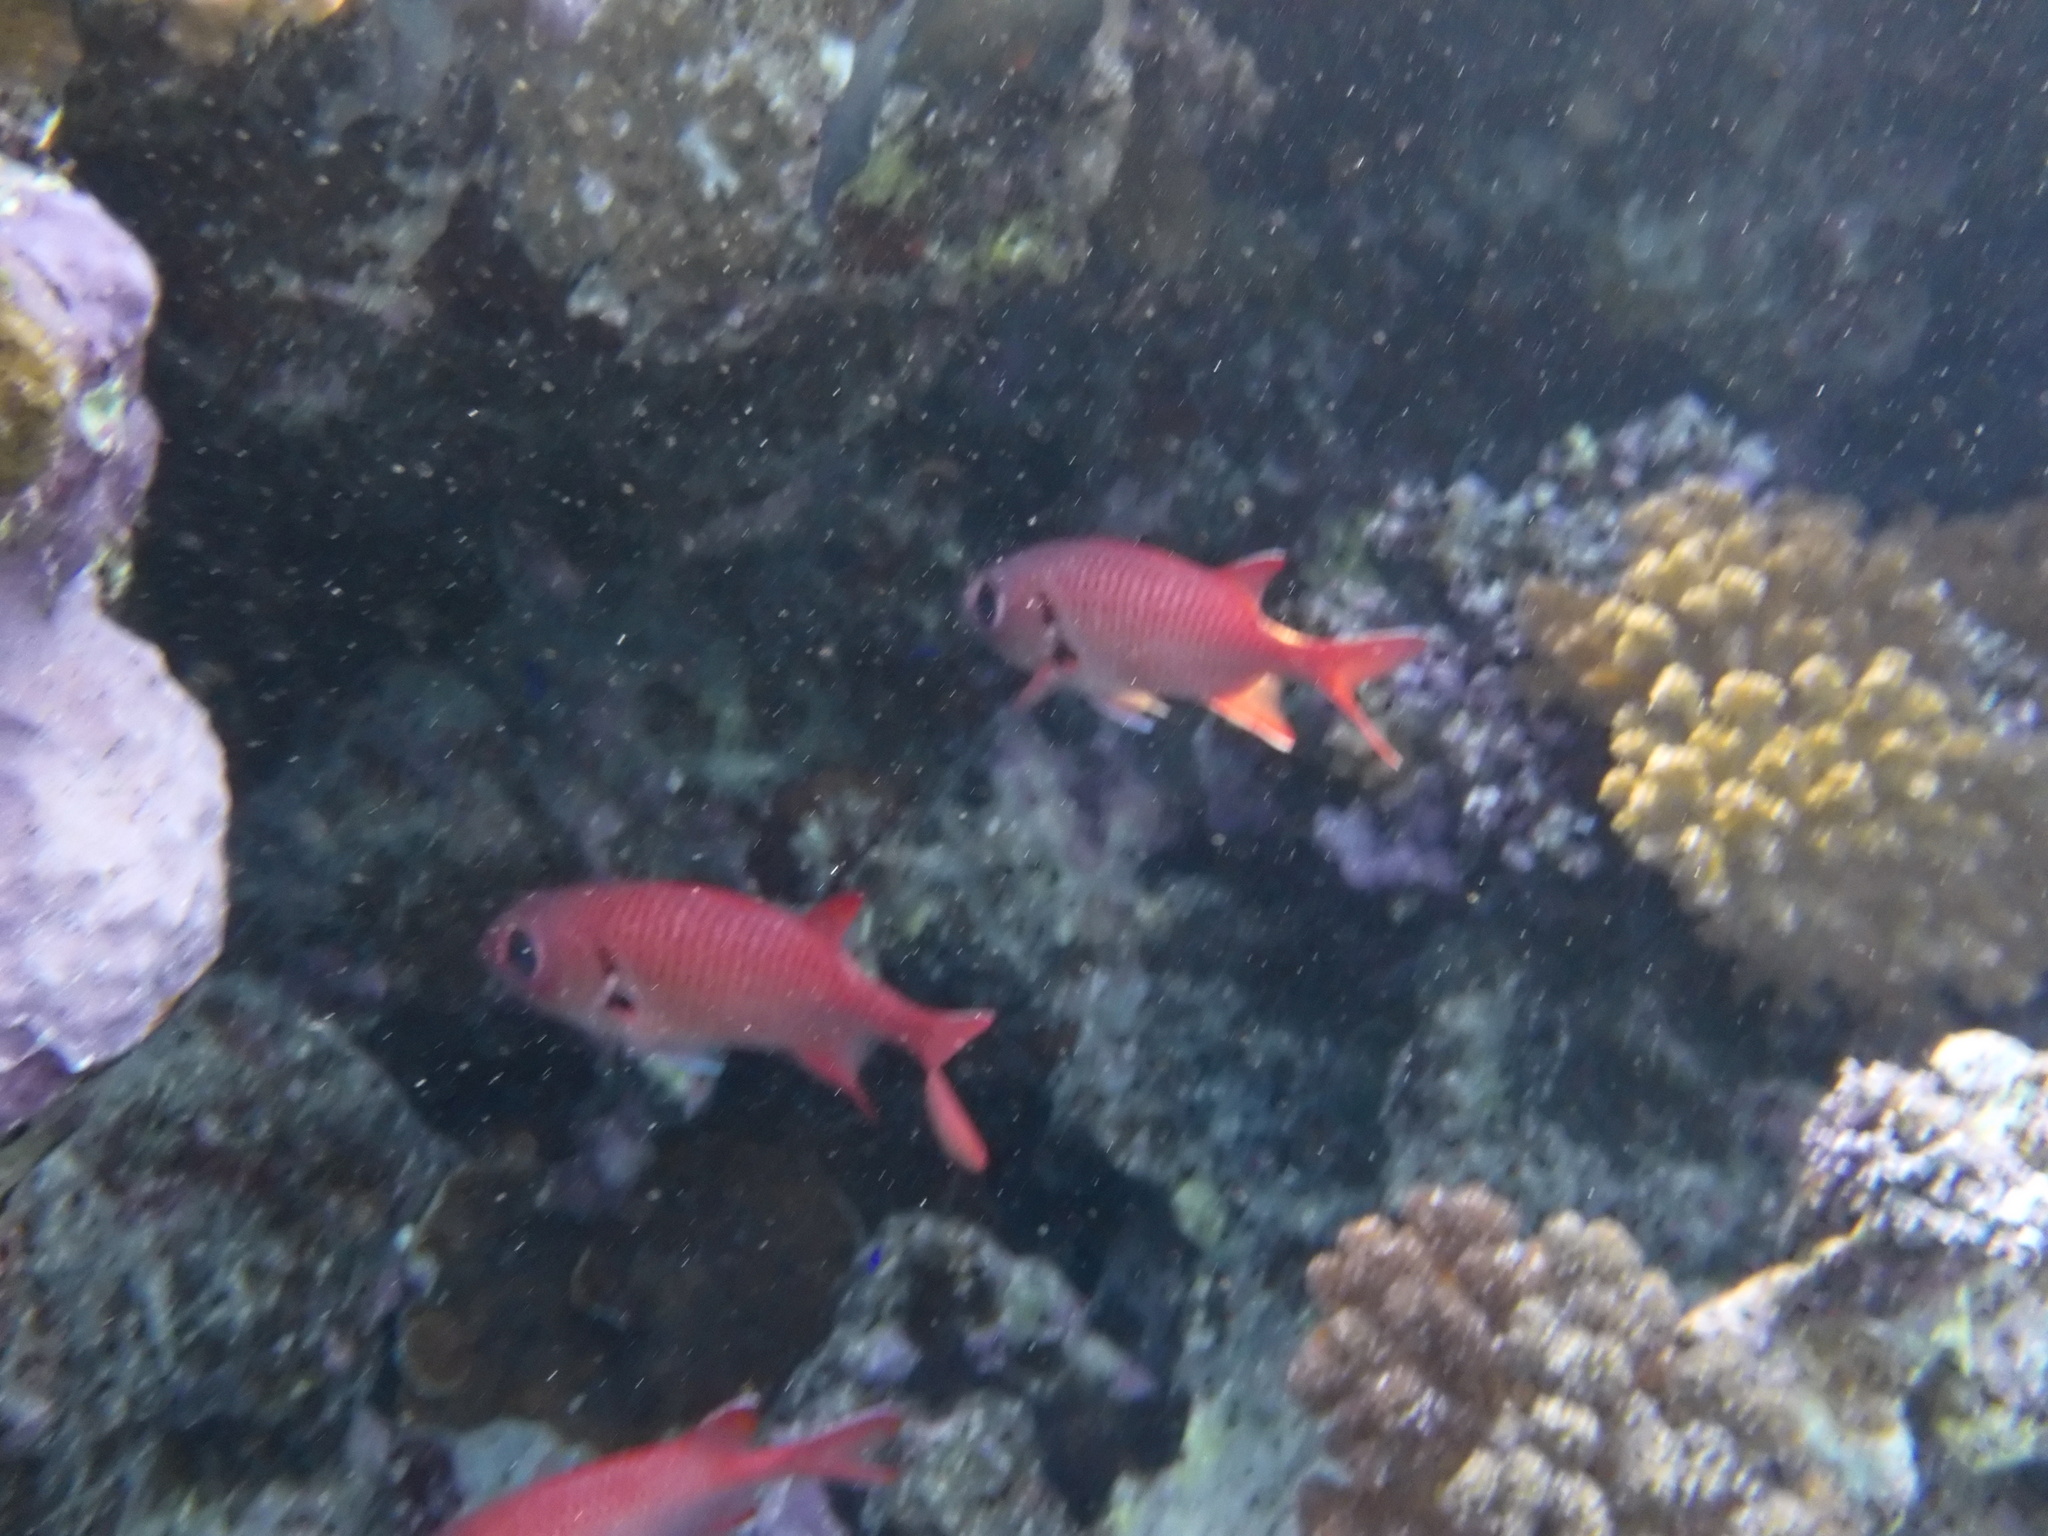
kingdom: Animalia
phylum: Chordata
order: Beryciformes
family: Holocentridae
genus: Myripristis
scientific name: Myripristis murdjan
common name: Big-eye soldierfish
